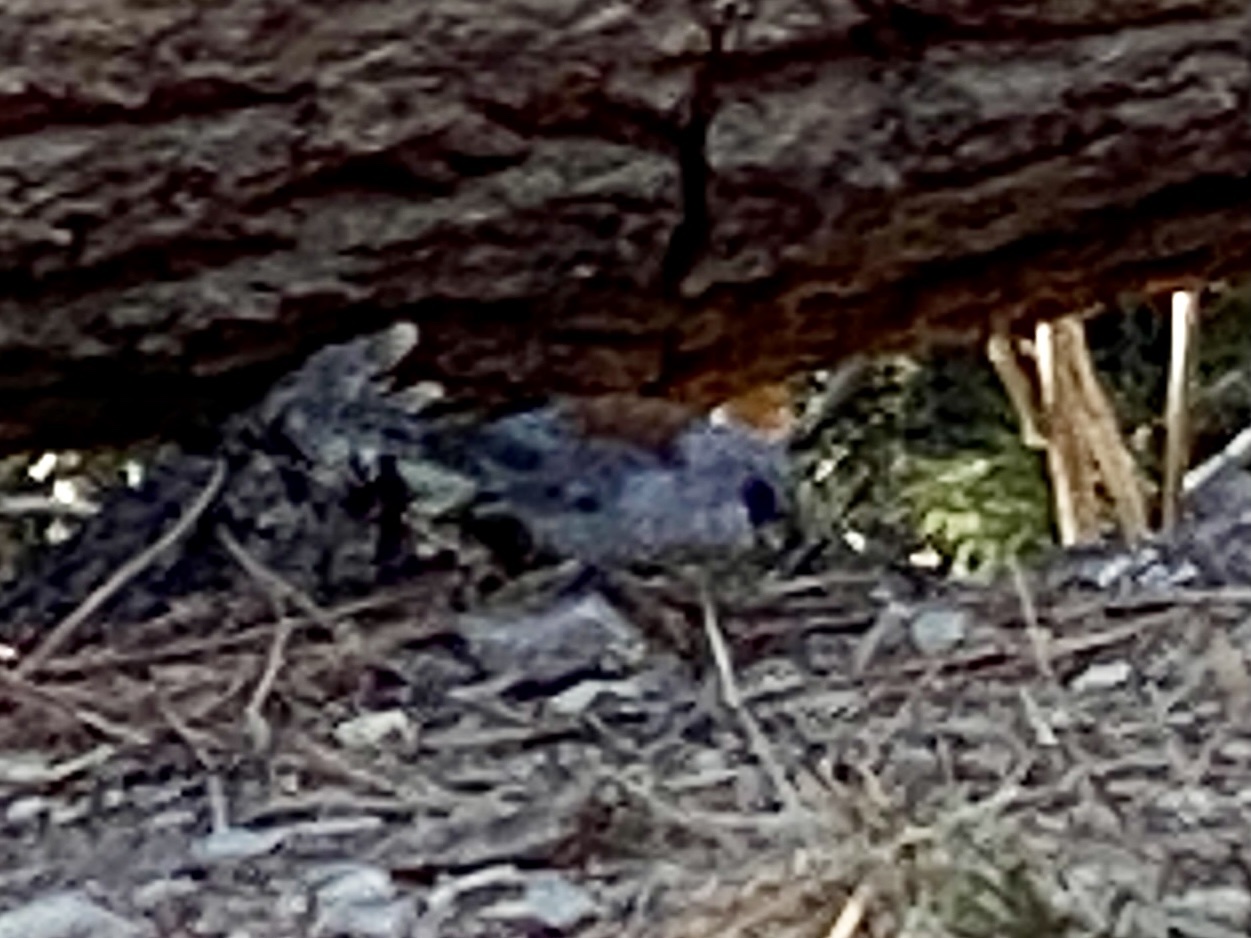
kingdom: Animalia
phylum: Chordata
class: Aves
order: Passeriformes
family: Passerellidae
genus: Junco
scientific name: Junco hyemalis
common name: Dark-eyed junco
